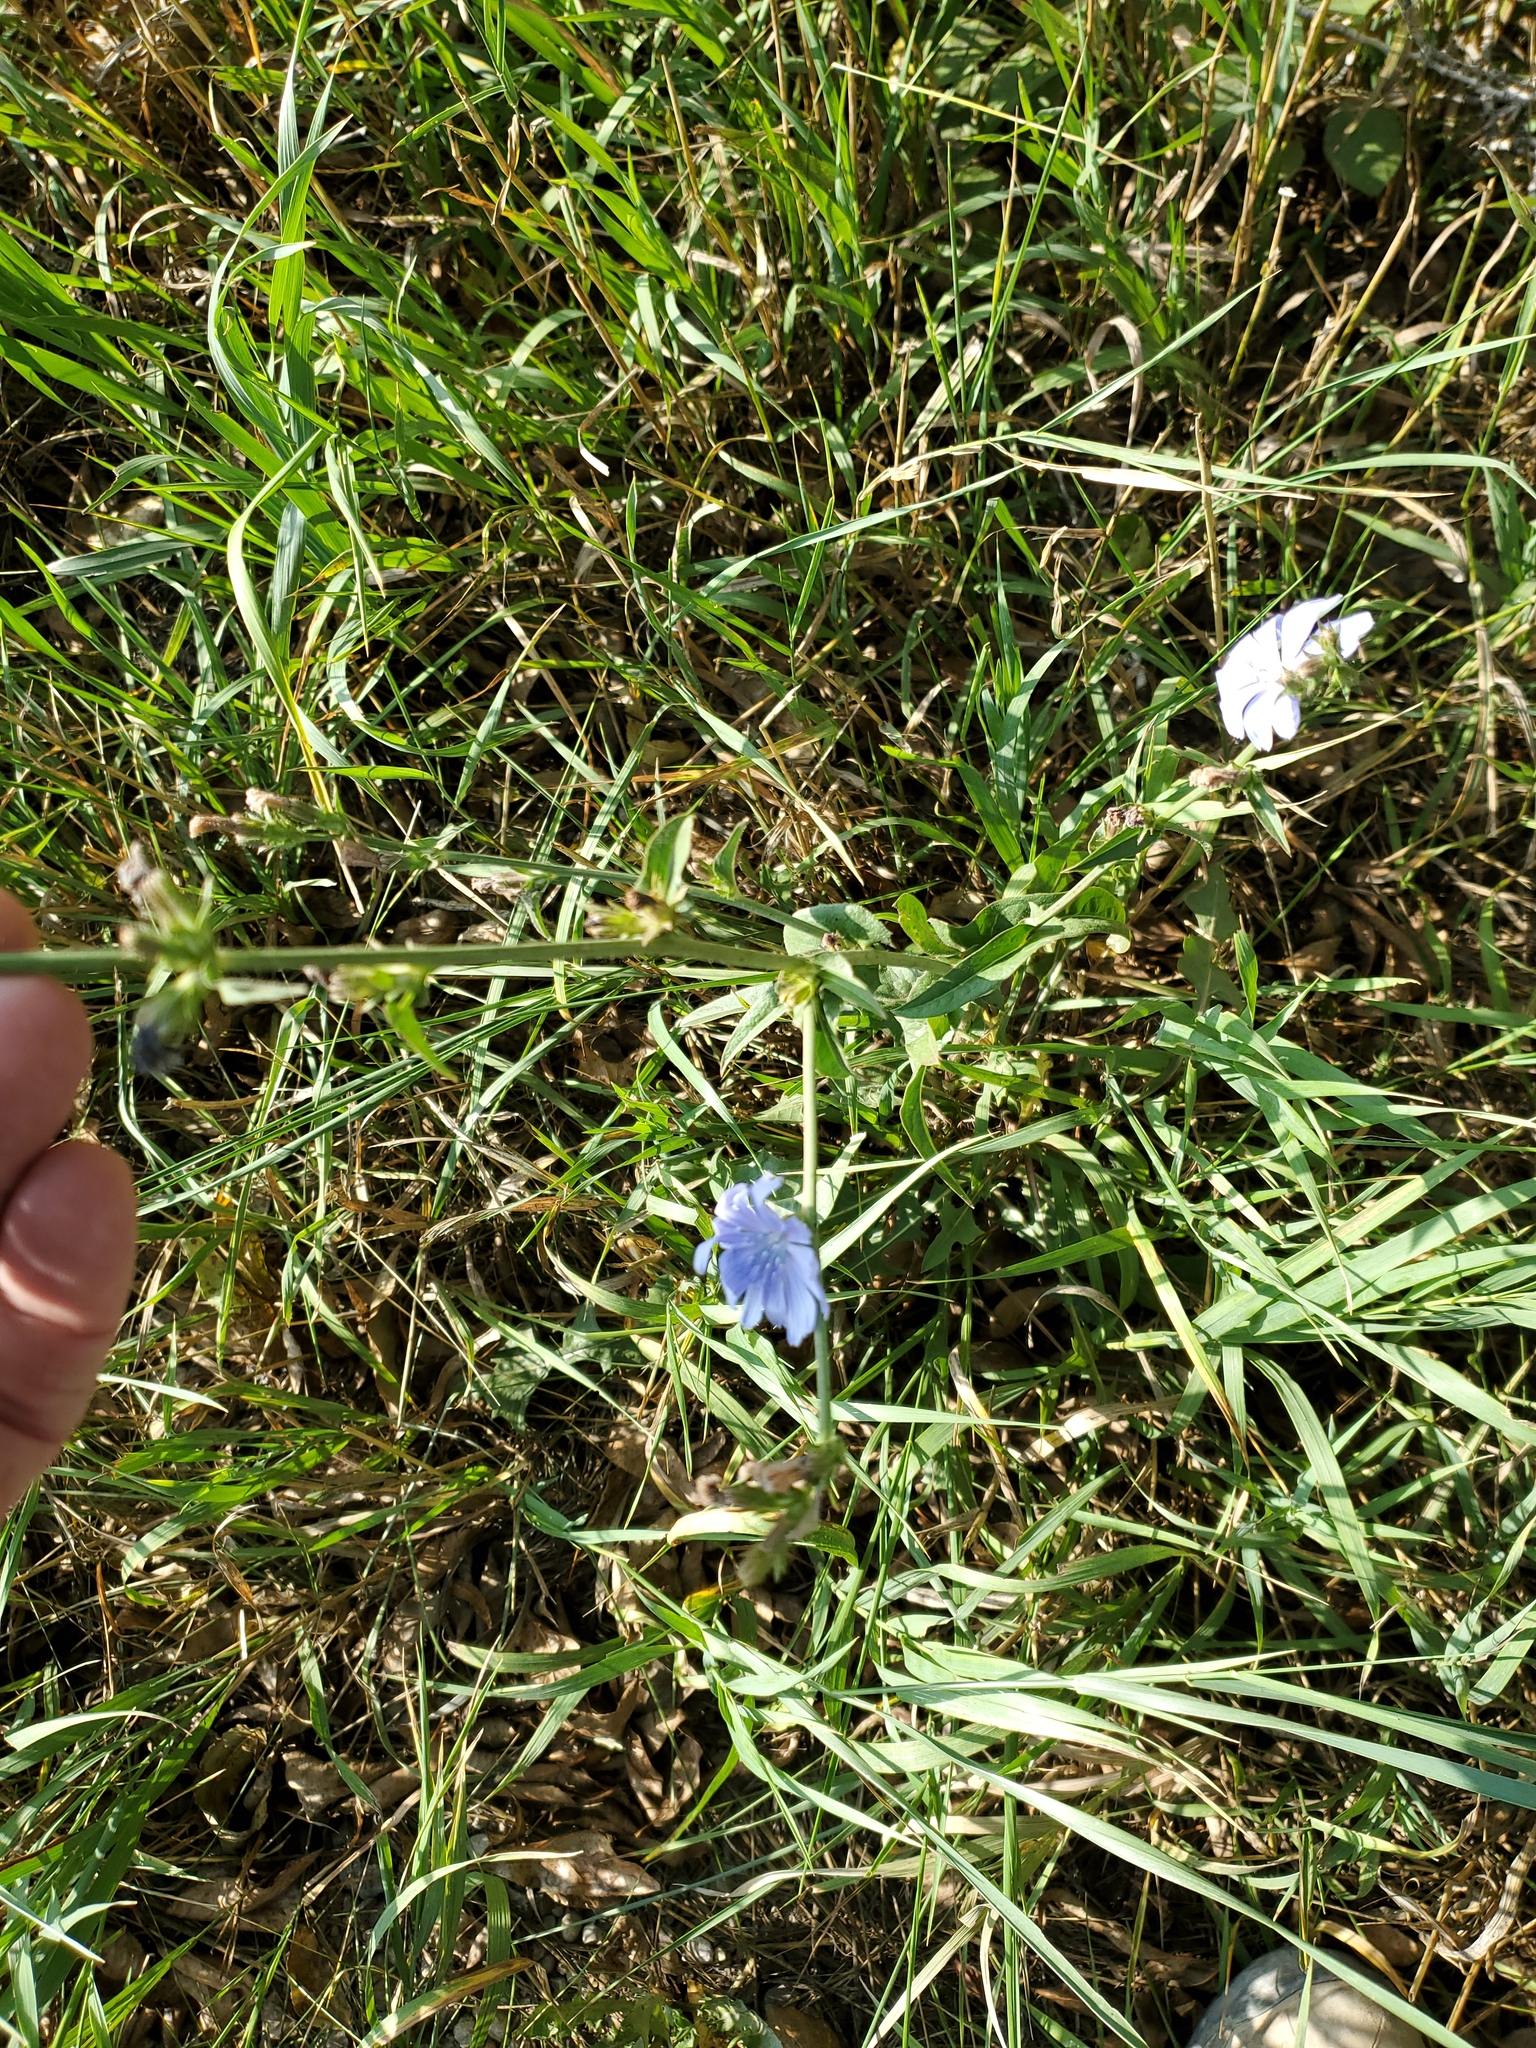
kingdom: Plantae
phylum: Tracheophyta
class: Magnoliopsida
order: Asterales
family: Asteraceae
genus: Cichorium
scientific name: Cichorium intybus
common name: Chicory
